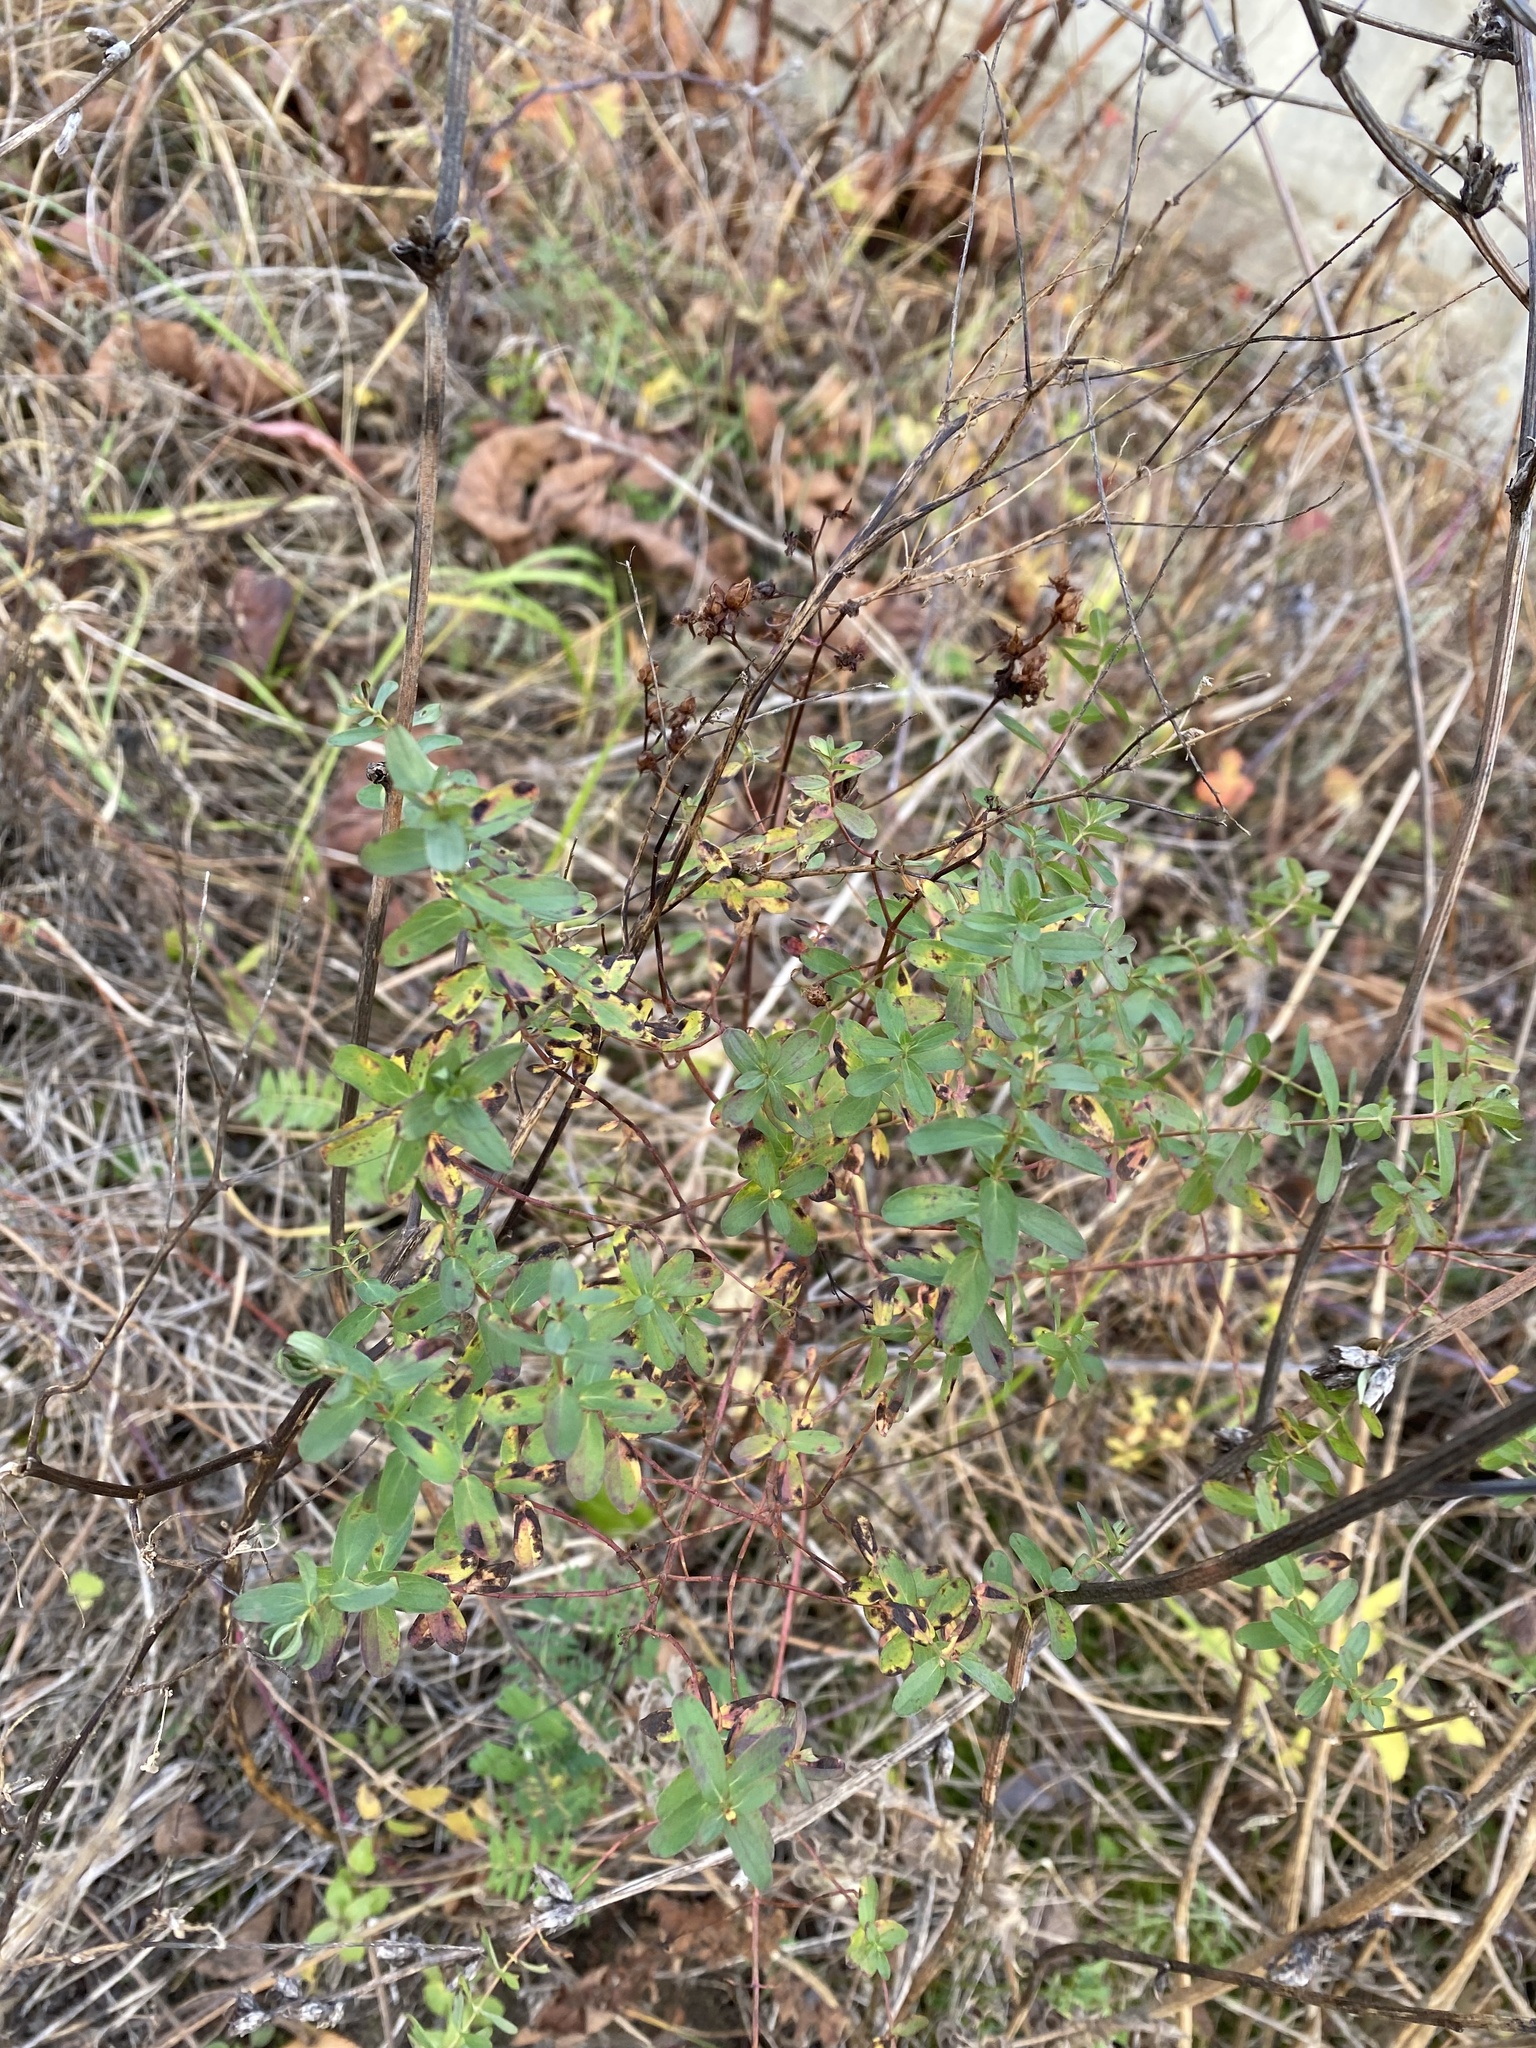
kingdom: Plantae
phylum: Tracheophyta
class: Magnoliopsida
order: Malpighiales
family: Hypericaceae
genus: Hypericum
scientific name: Hypericum perforatum
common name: Common st. johnswort
